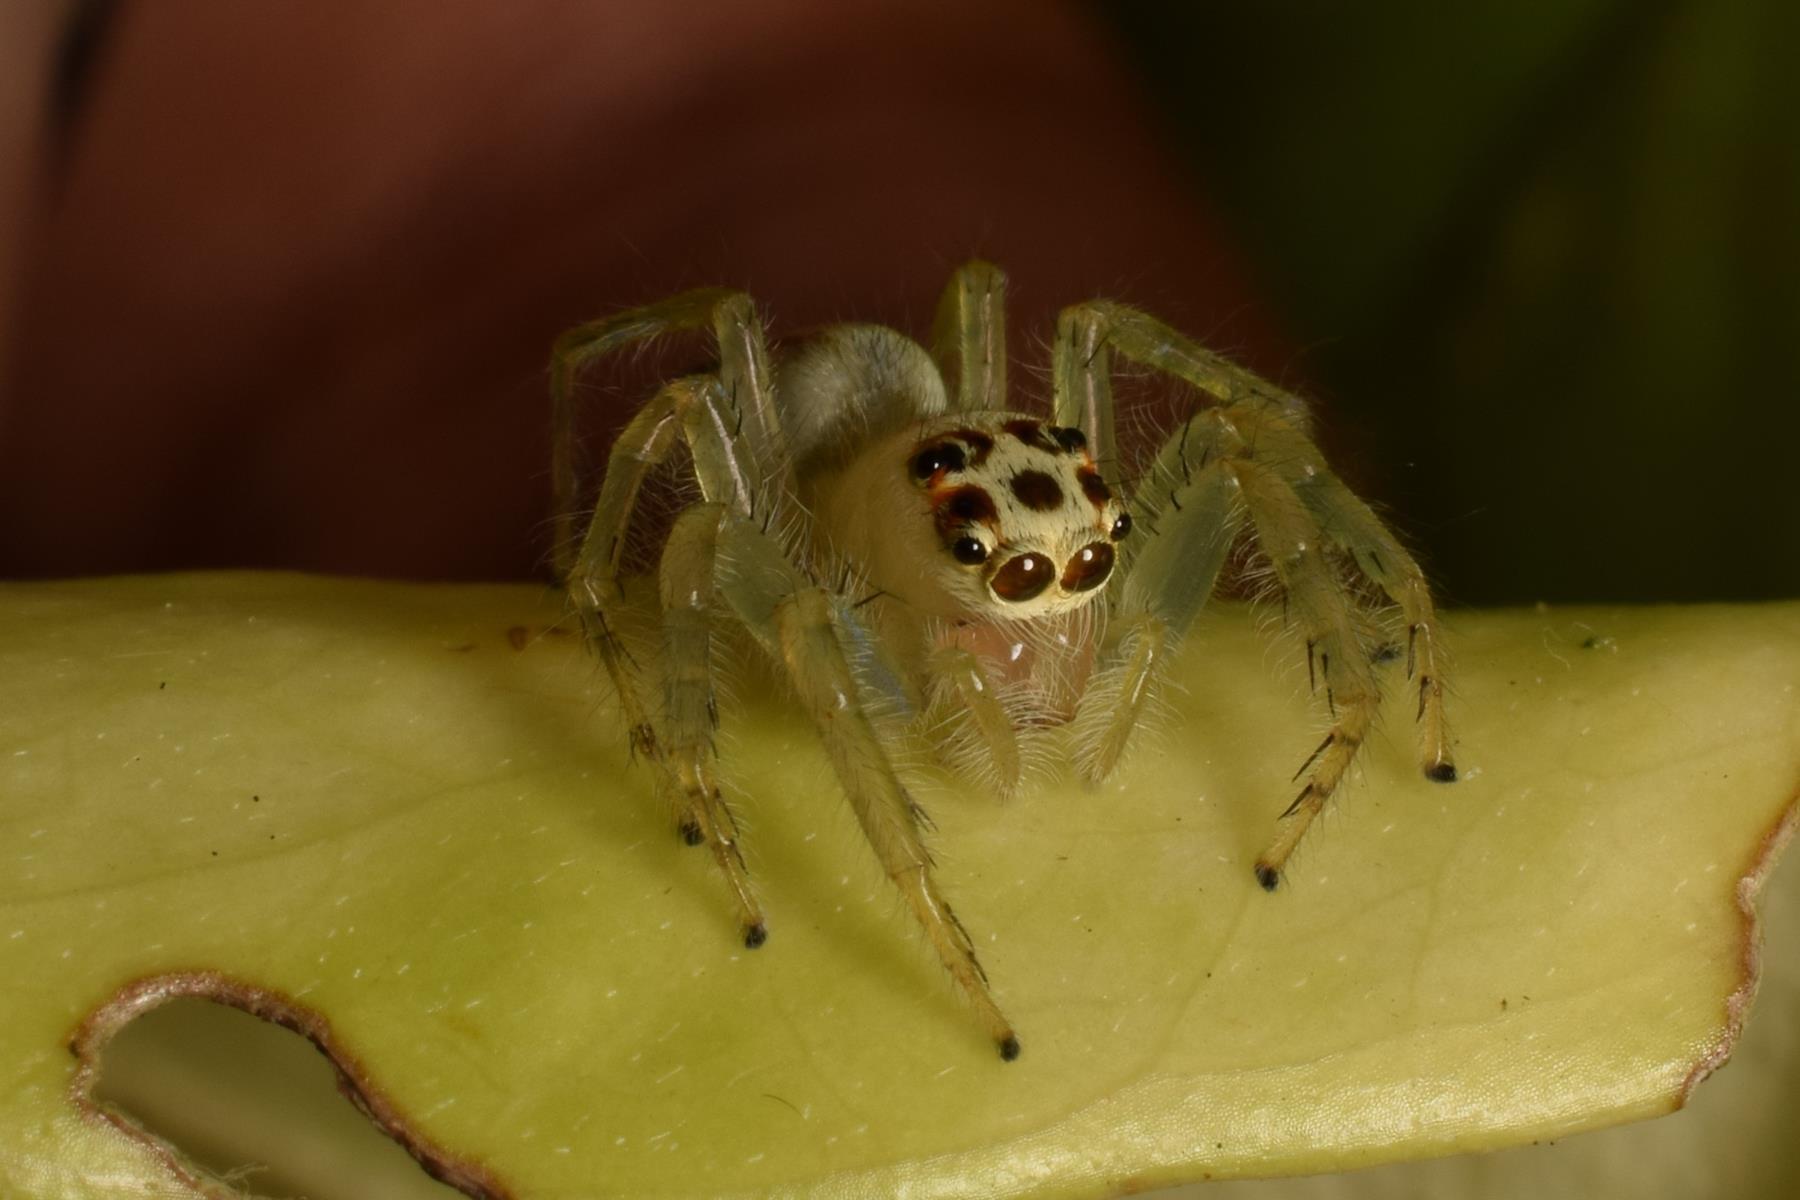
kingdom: Animalia
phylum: Arthropoda
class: Arachnida
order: Araneae
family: Salticidae
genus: Telamonia
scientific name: Telamonia dimidiata
